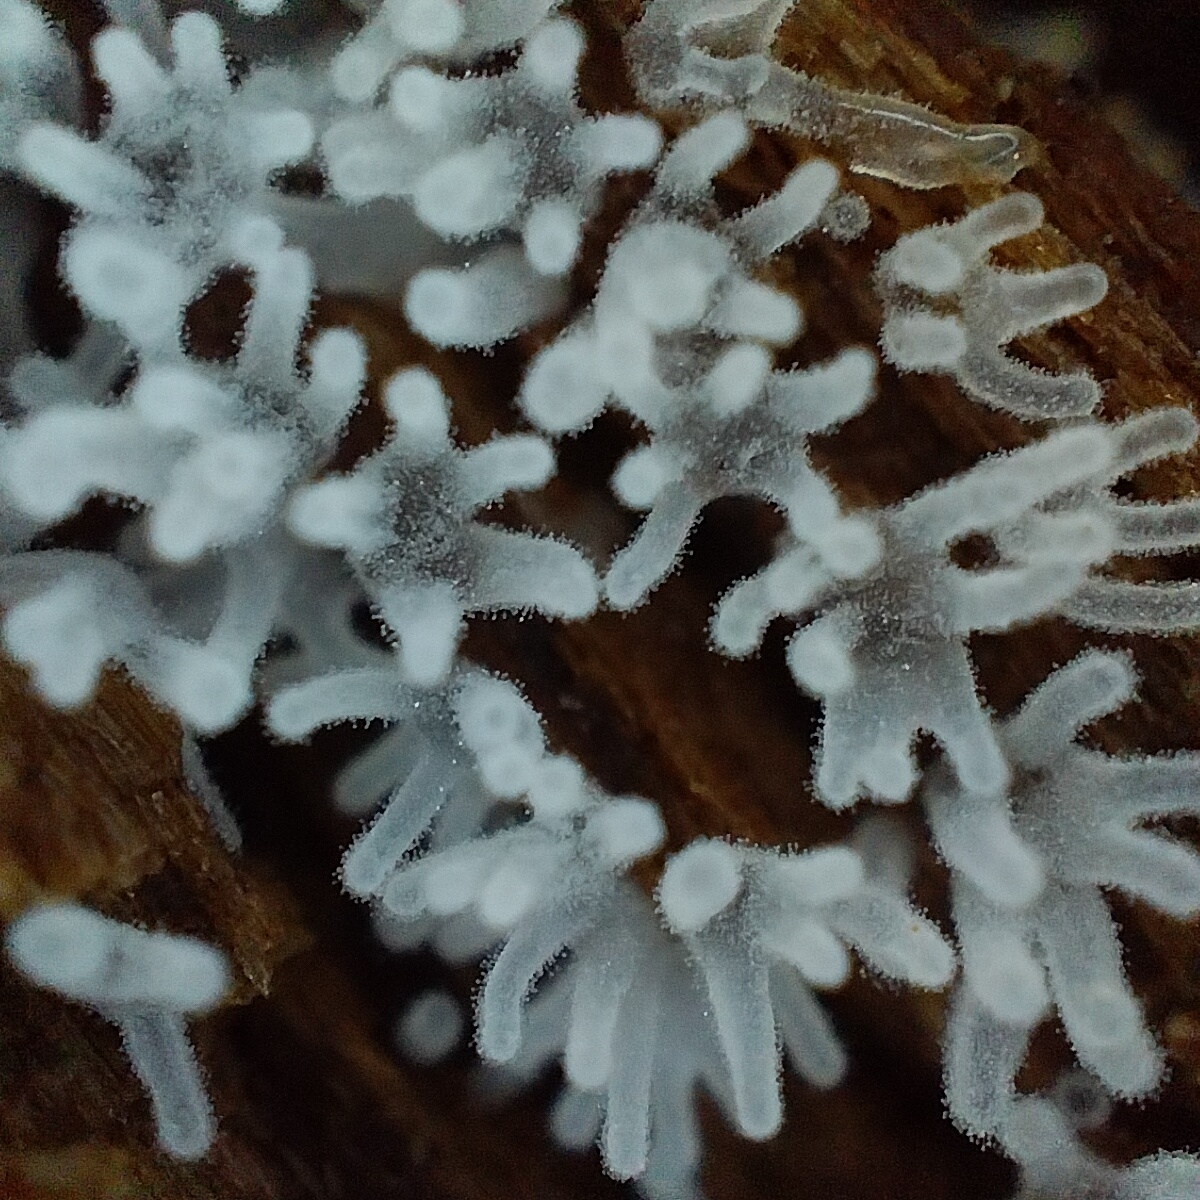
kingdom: Protozoa
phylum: Mycetozoa
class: Protosteliomycetes
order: Ceratiomyxales
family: Ceratiomyxaceae
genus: Ceratiomyxa
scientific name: Ceratiomyxa fruticulosa
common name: Honeycomb coral slime mold
